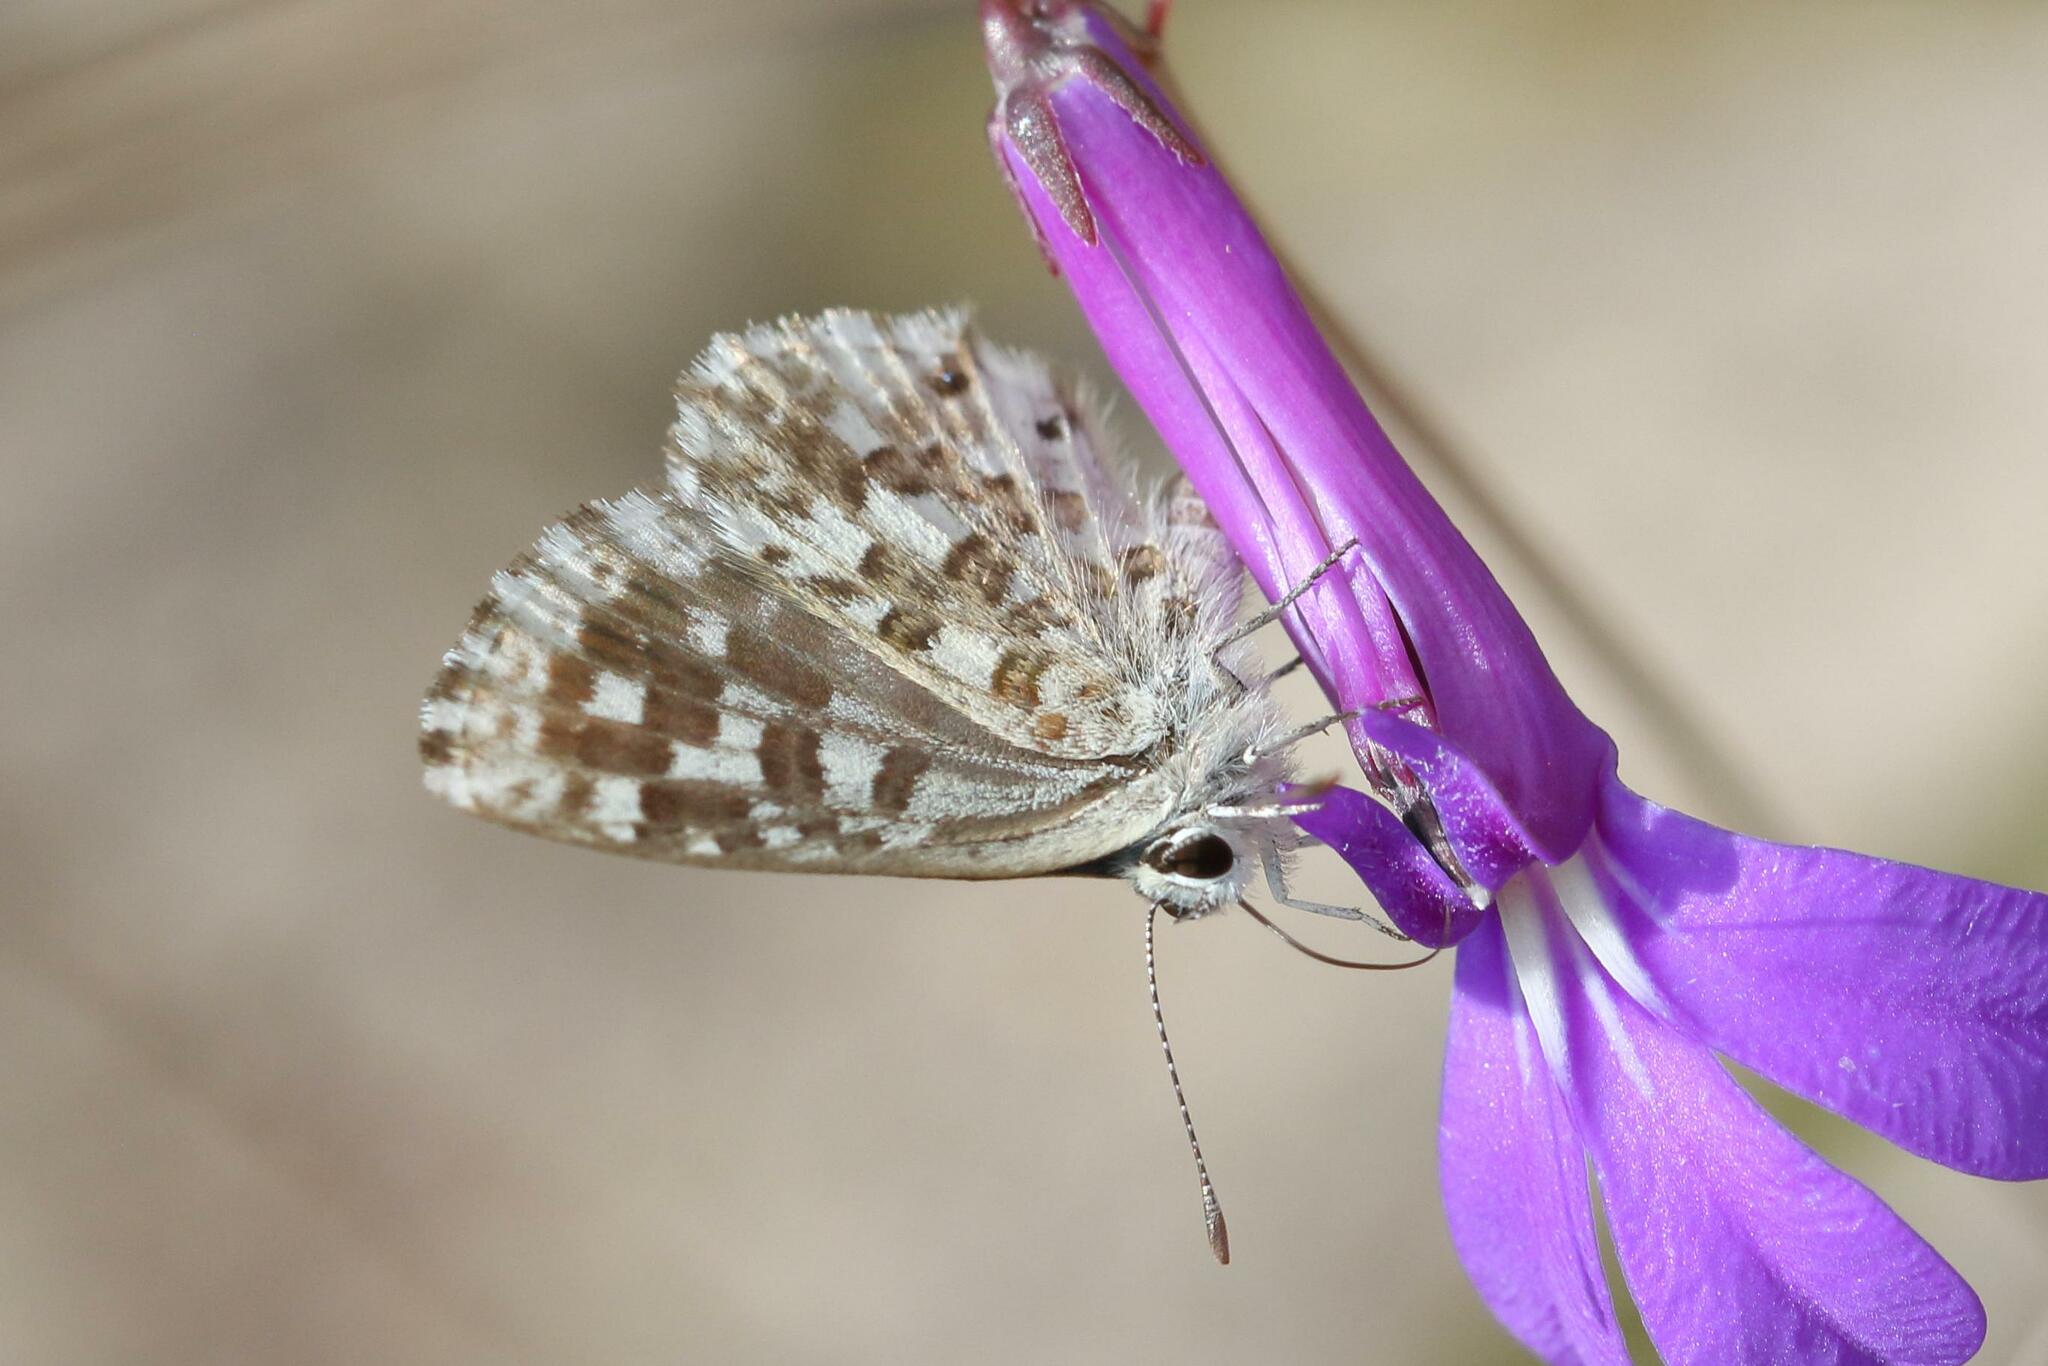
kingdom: Animalia
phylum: Arthropoda
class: Insecta
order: Lepidoptera
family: Lycaenidae
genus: Tarucus
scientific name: Tarucus thespis
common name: Vivid dotted blue
